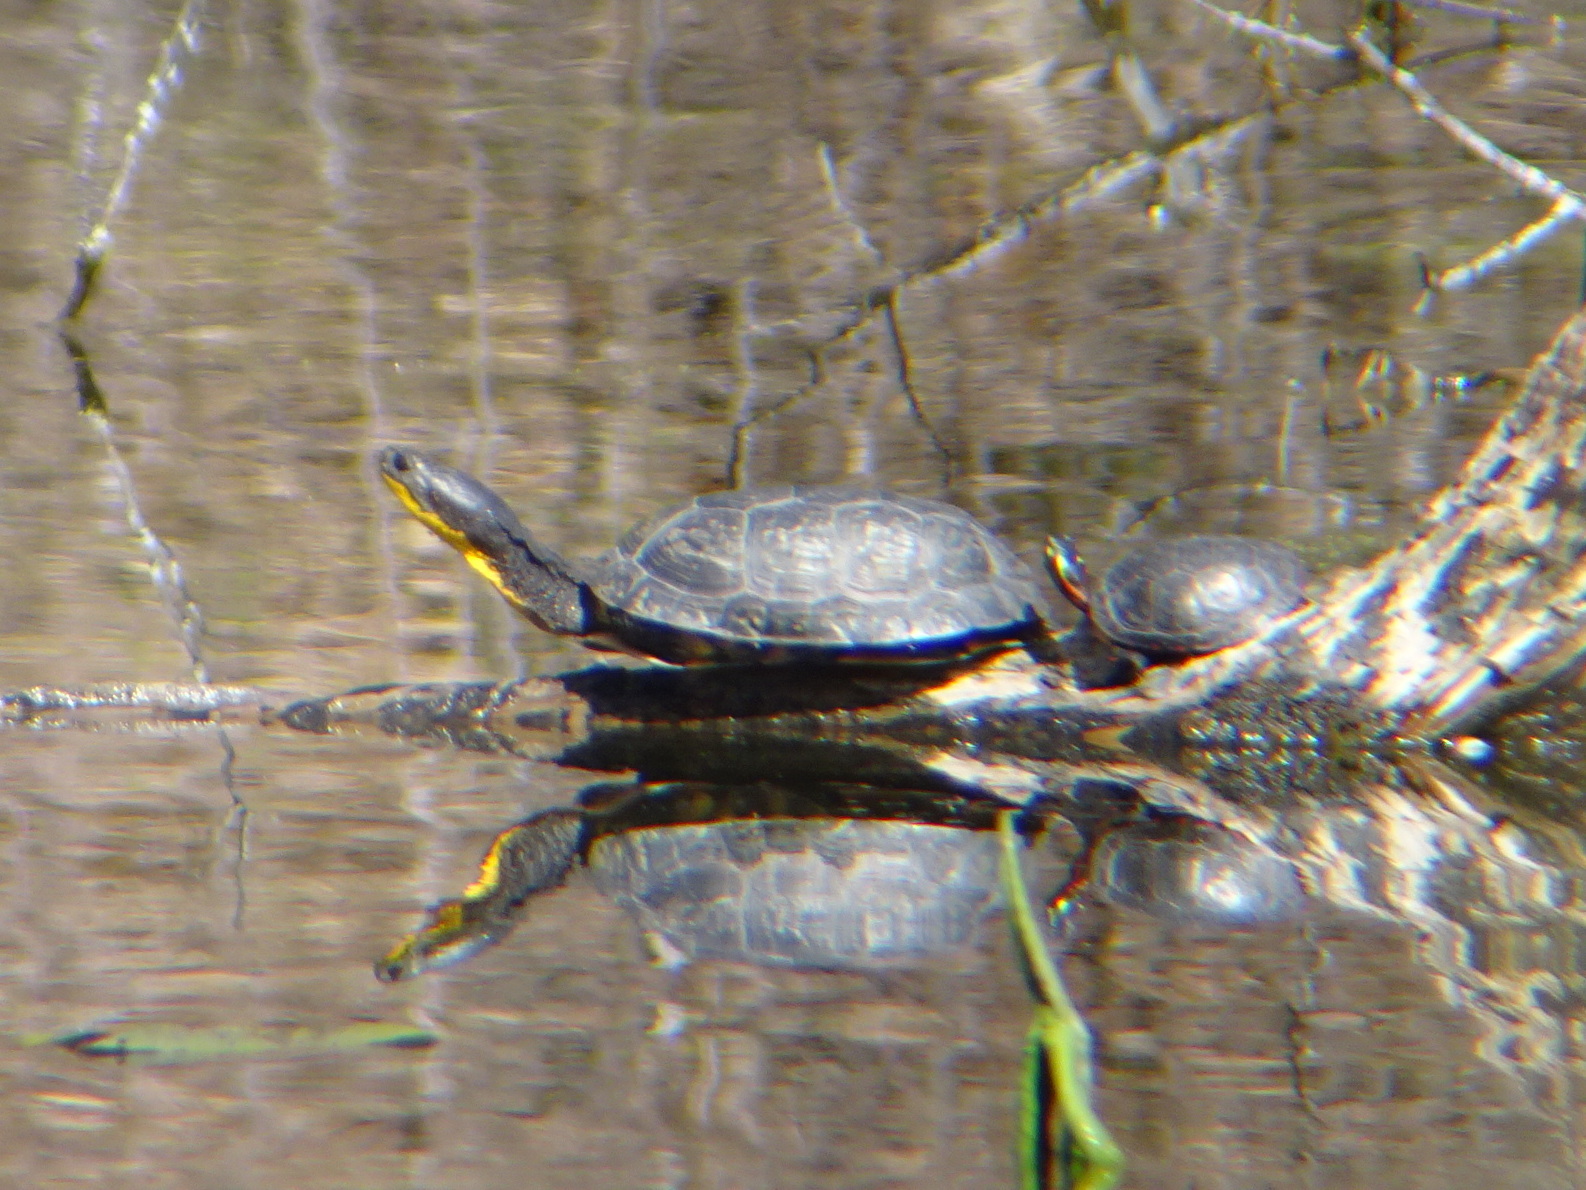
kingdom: Animalia
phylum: Chordata
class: Testudines
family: Emydidae
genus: Emys
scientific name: Emys blandingii
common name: Blanding's turtle
